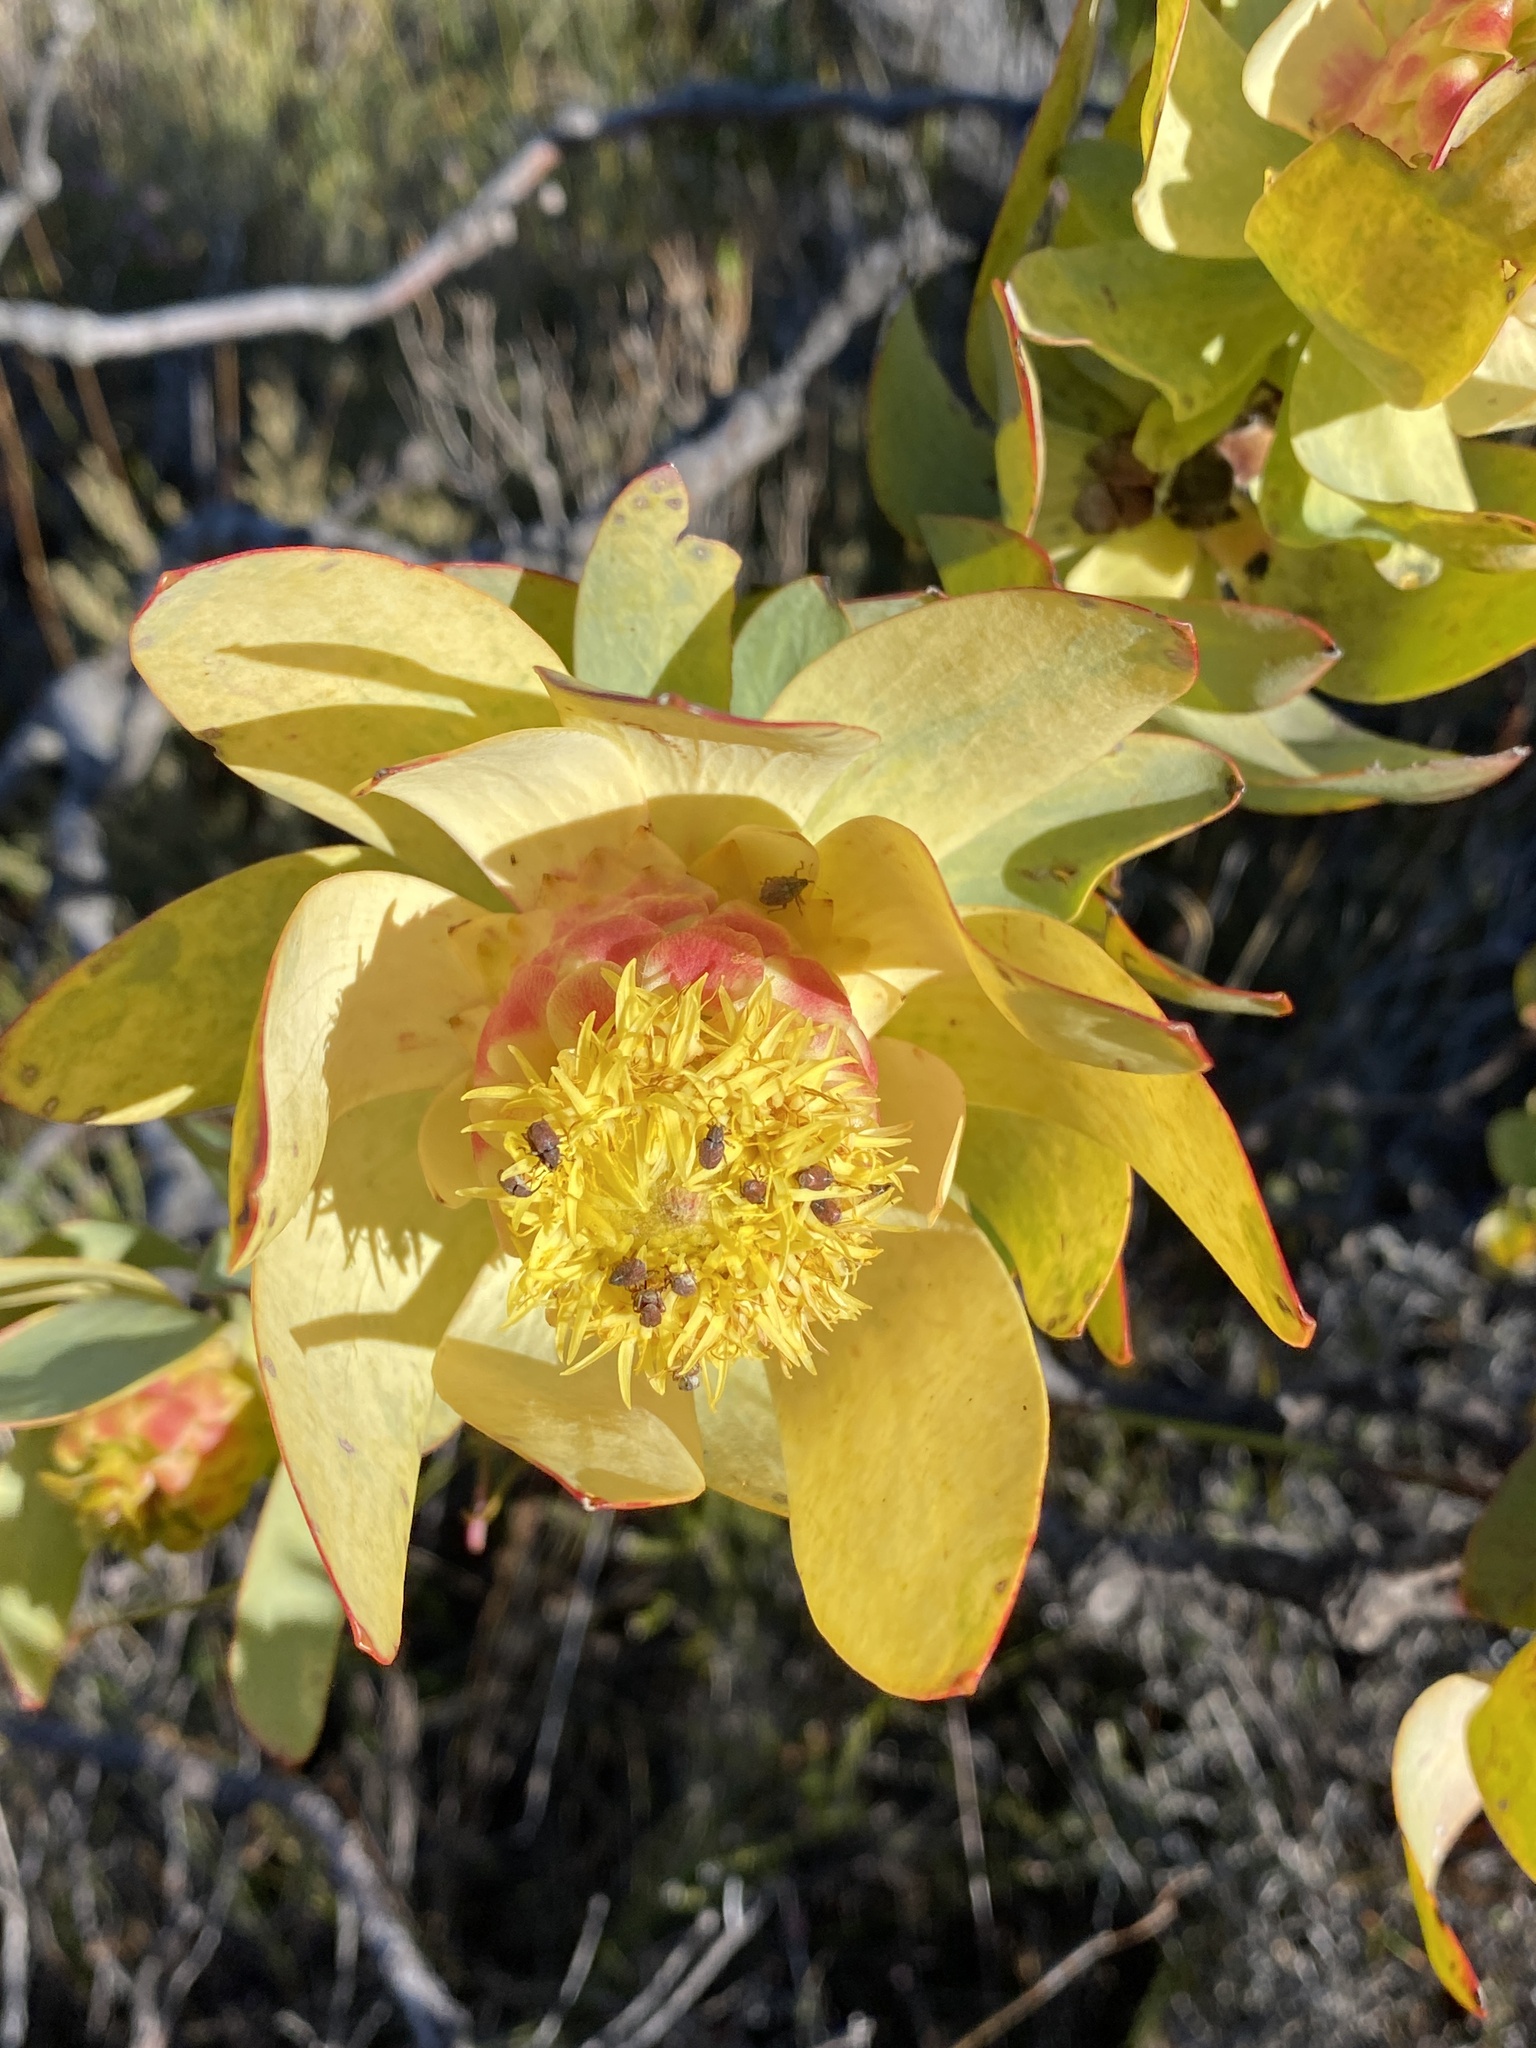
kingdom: Plantae
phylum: Tracheophyta
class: Magnoliopsida
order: Proteales
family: Proteaceae
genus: Leucadendron
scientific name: Leucadendron pubibracteolatum
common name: Purple-leaf conebush
